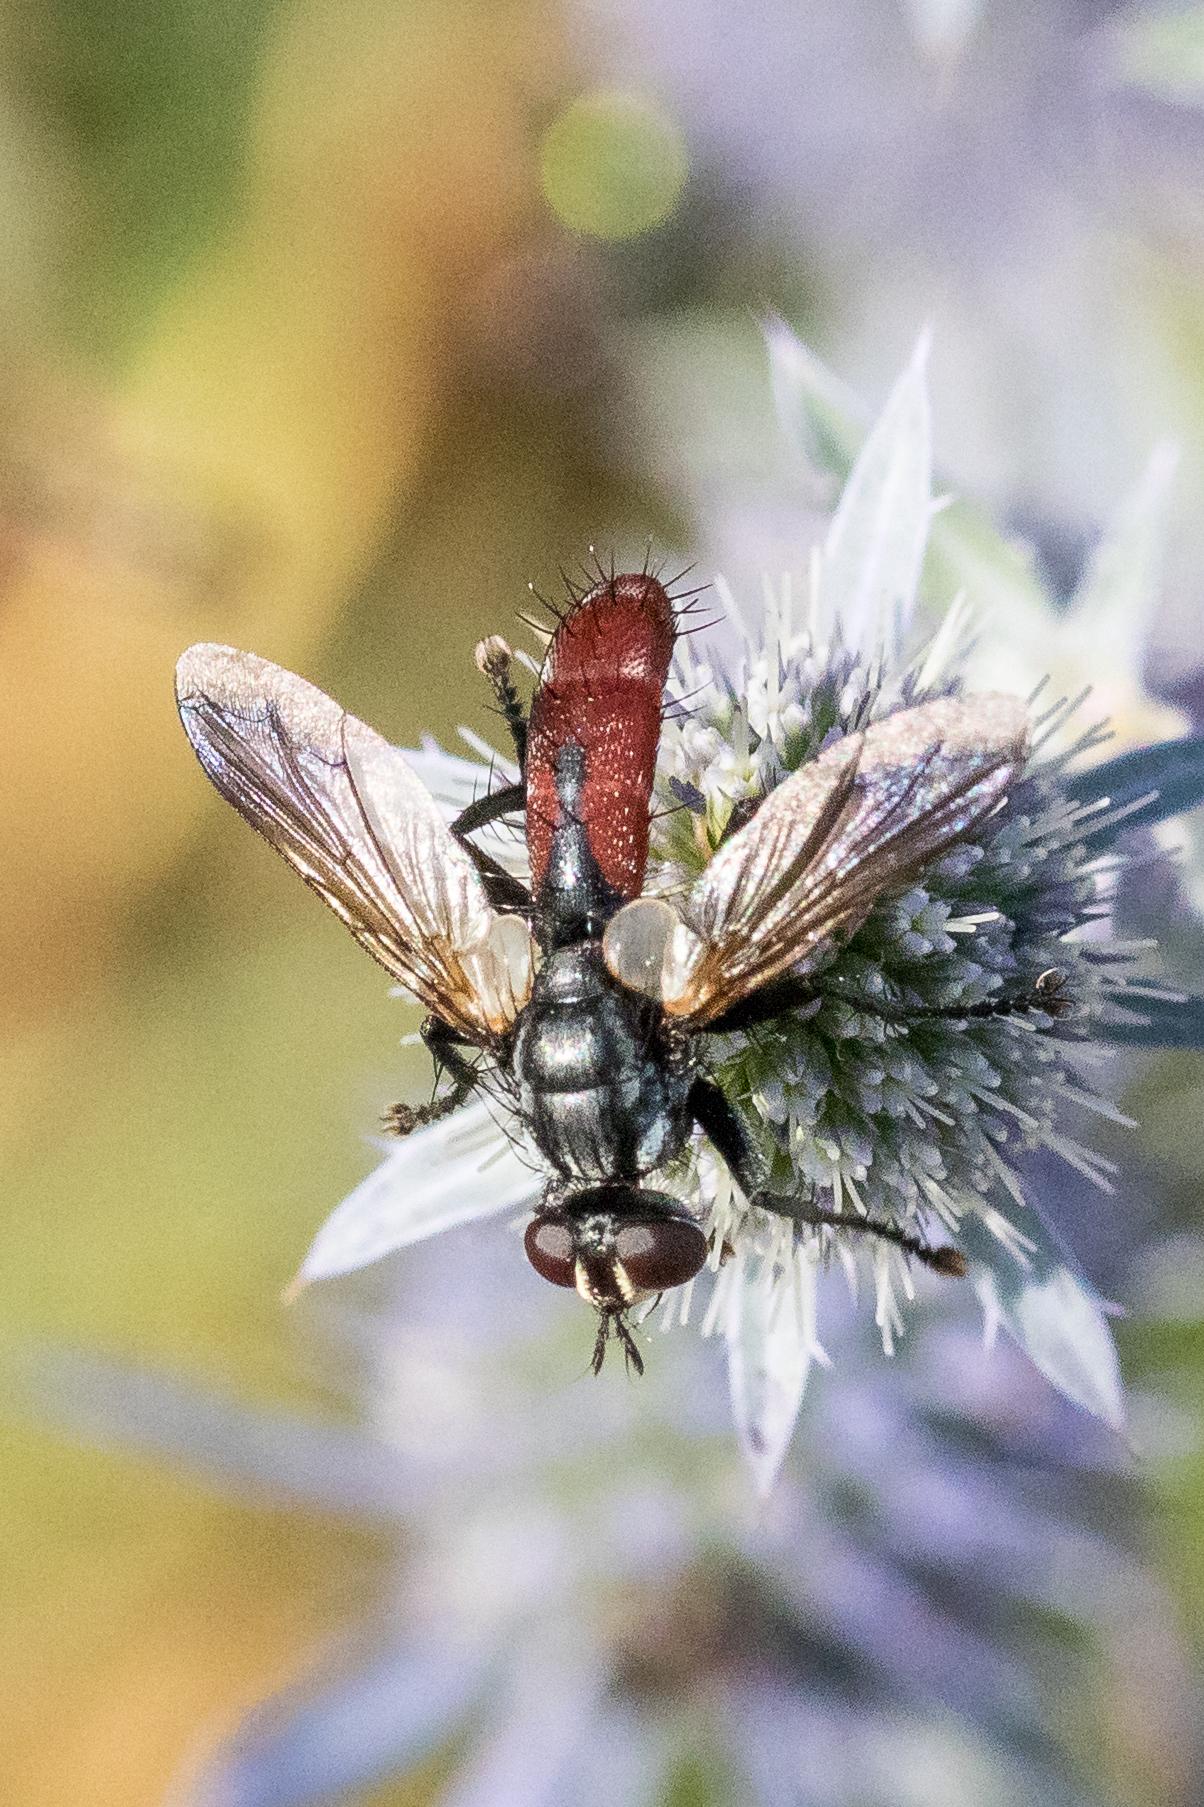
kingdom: Animalia
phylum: Arthropoda
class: Insecta
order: Diptera
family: Tachinidae
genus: Cylindromyia
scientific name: Cylindromyia bicolor
